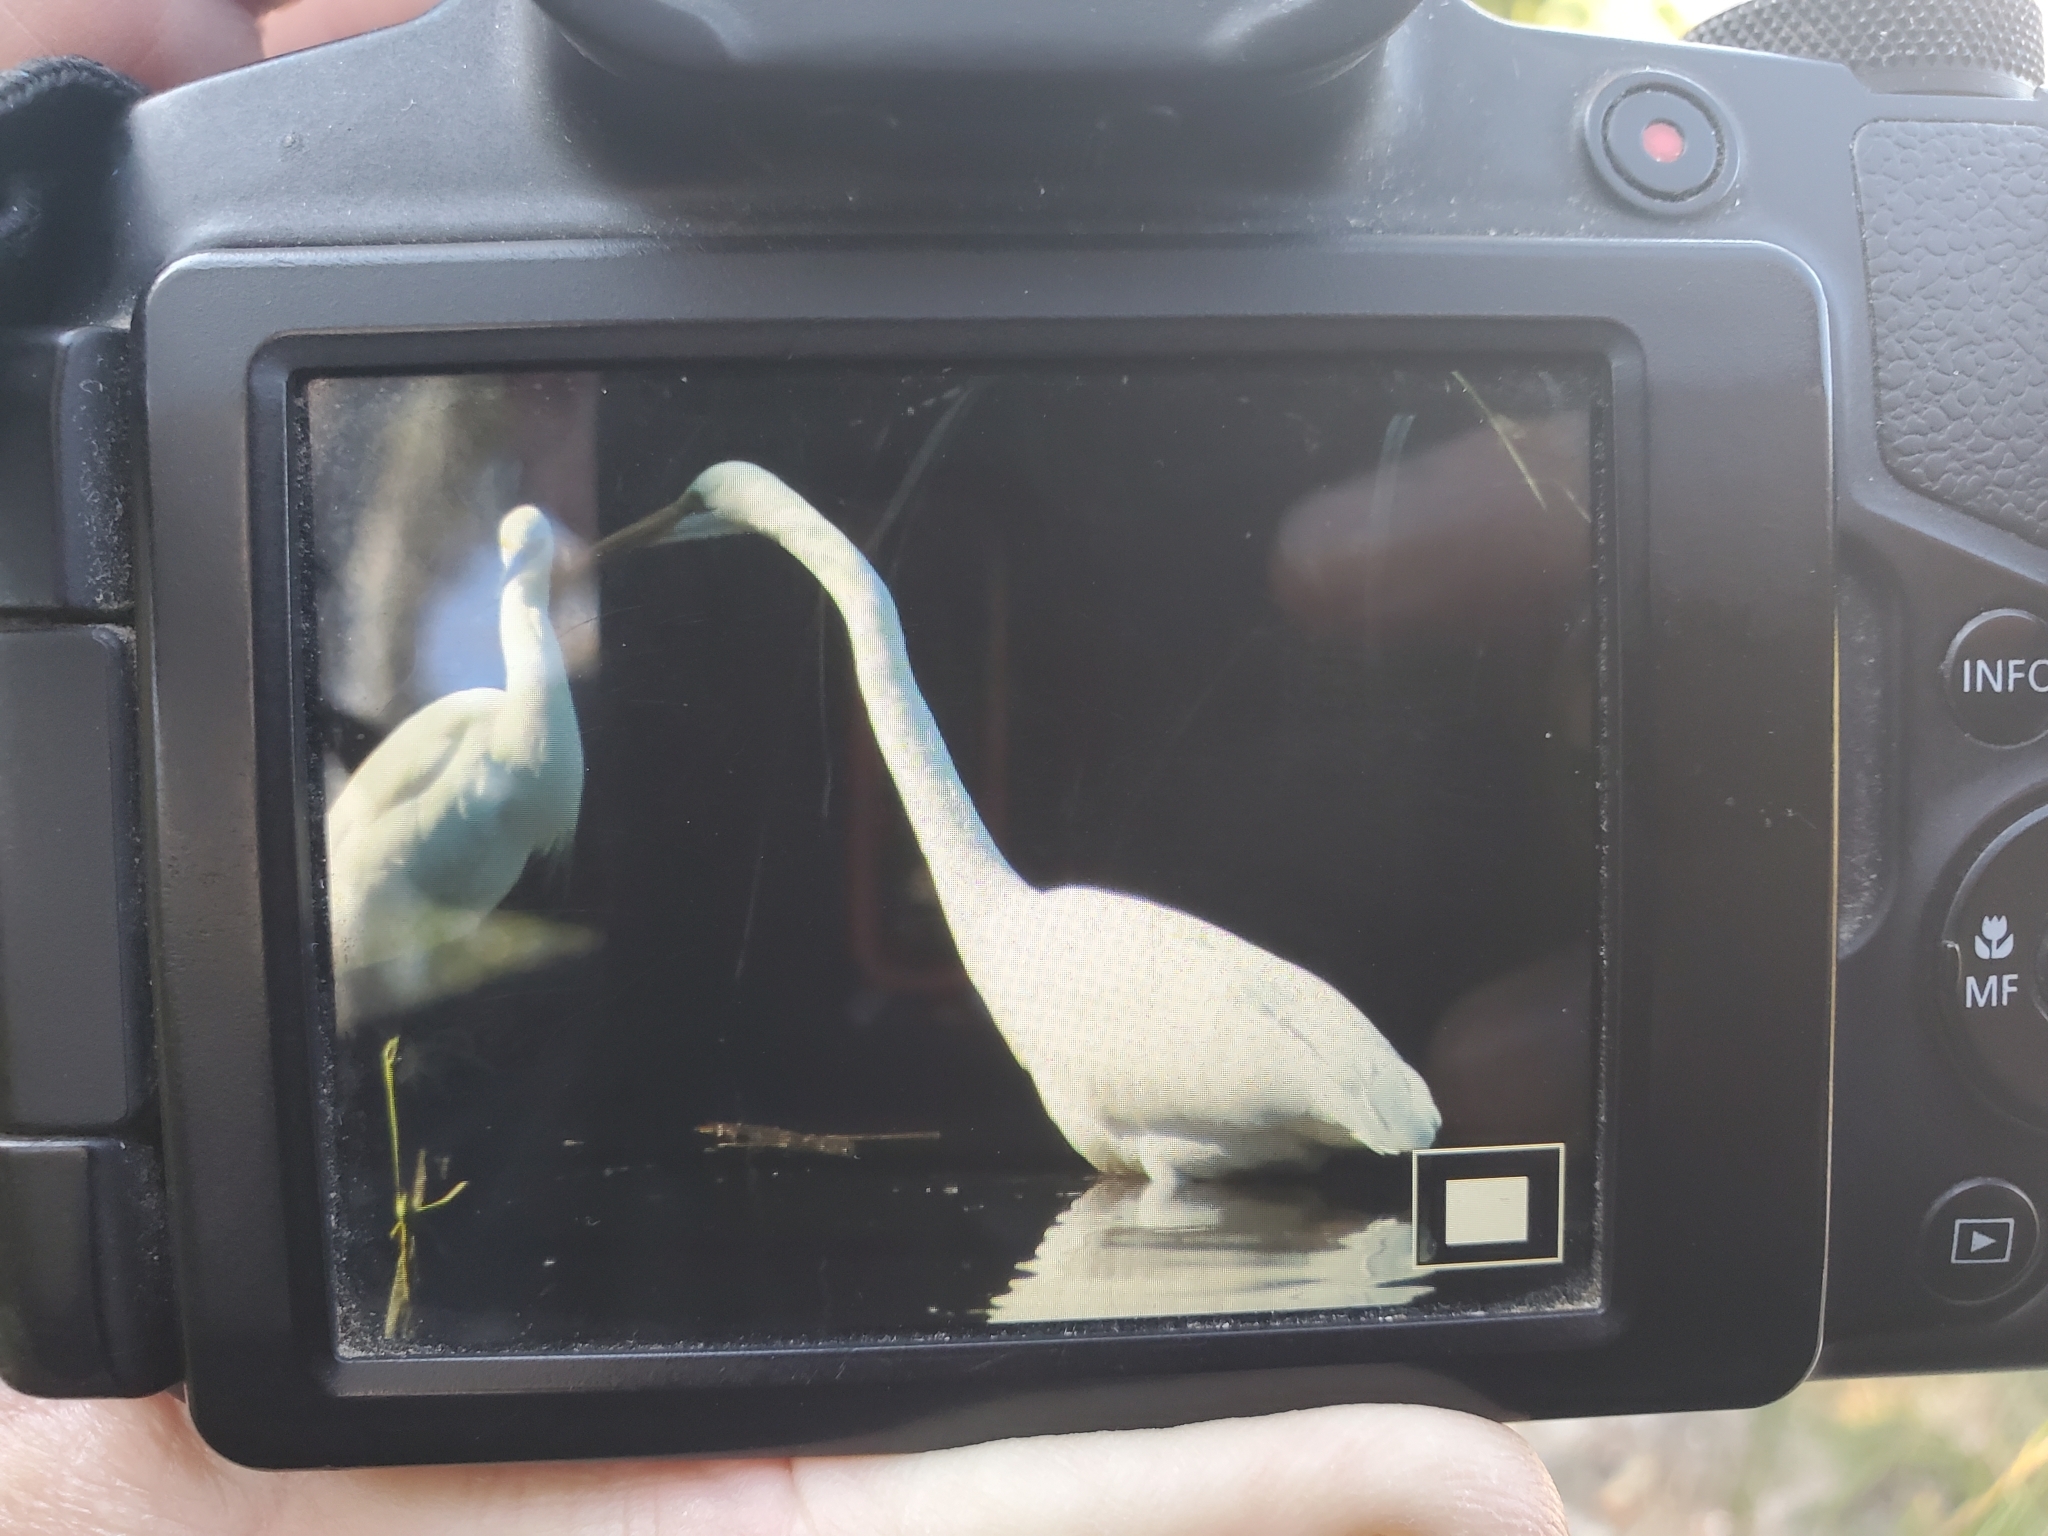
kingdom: Animalia
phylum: Chordata
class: Aves
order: Pelecaniformes
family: Ardeidae
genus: Ardea
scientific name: Ardea alba
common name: Great egret
